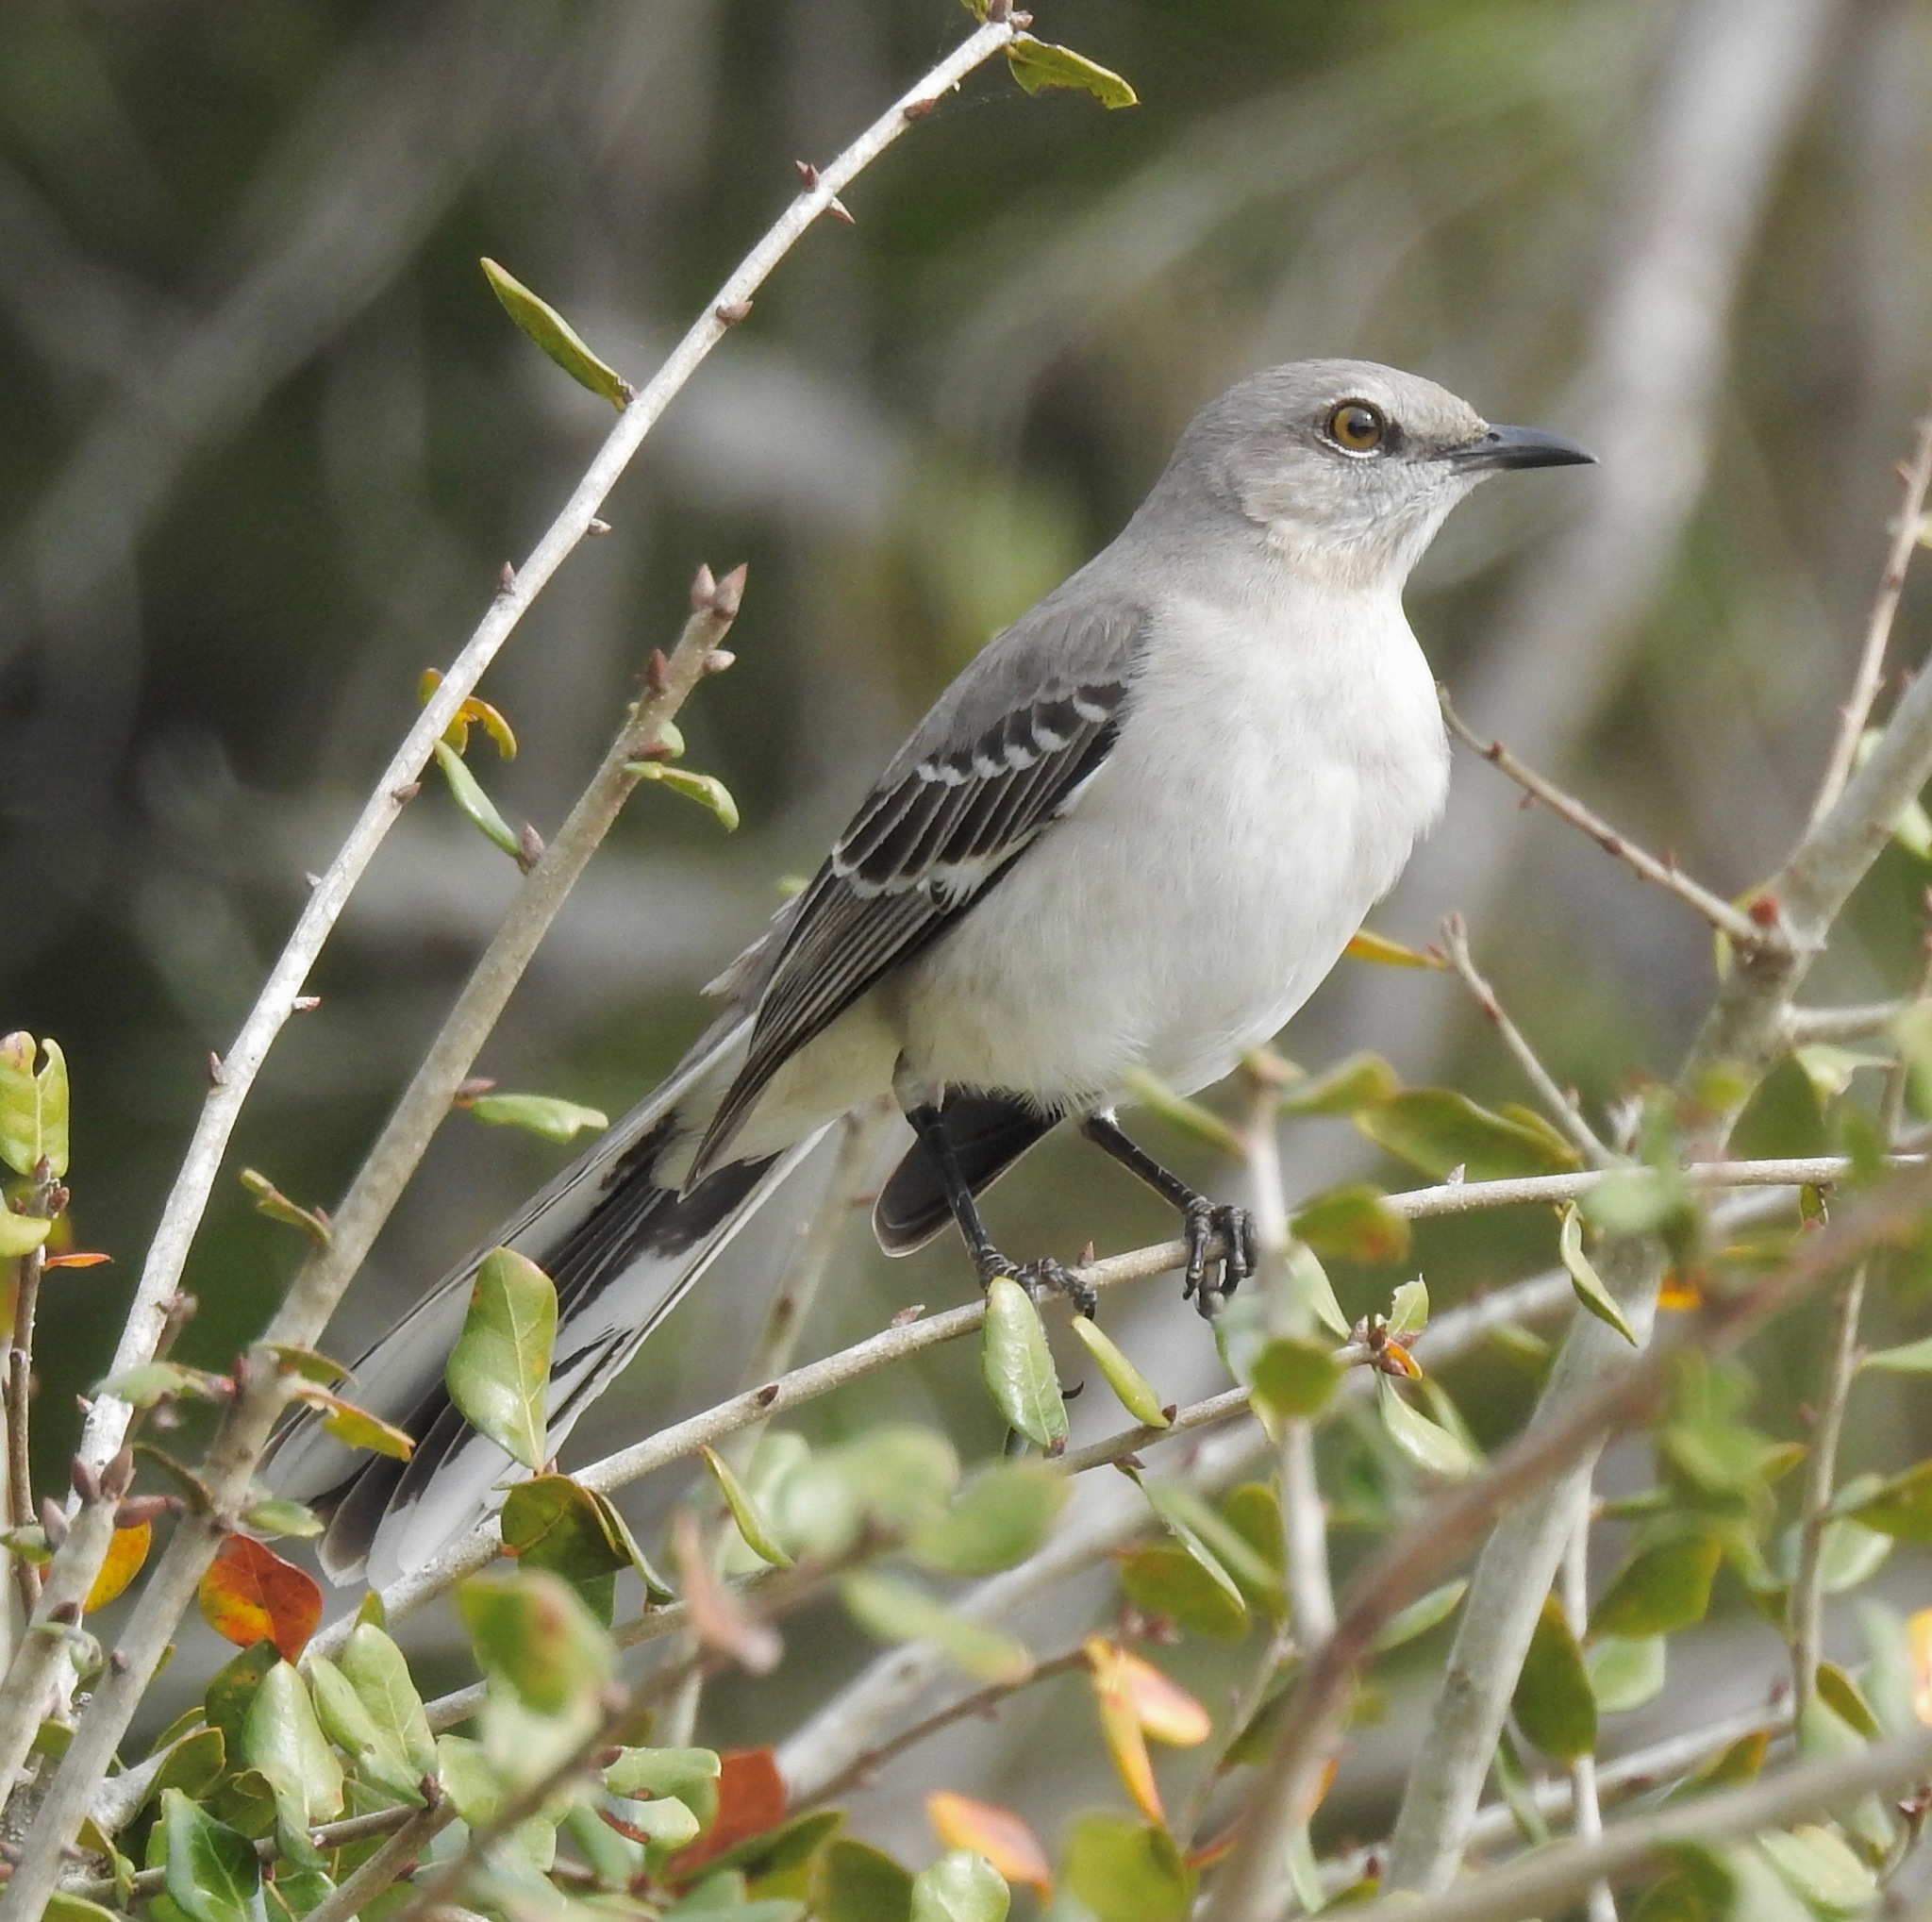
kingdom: Animalia
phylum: Chordata
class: Aves
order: Passeriformes
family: Mimidae
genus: Mimus
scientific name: Mimus polyglottos
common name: Northern mockingbird
